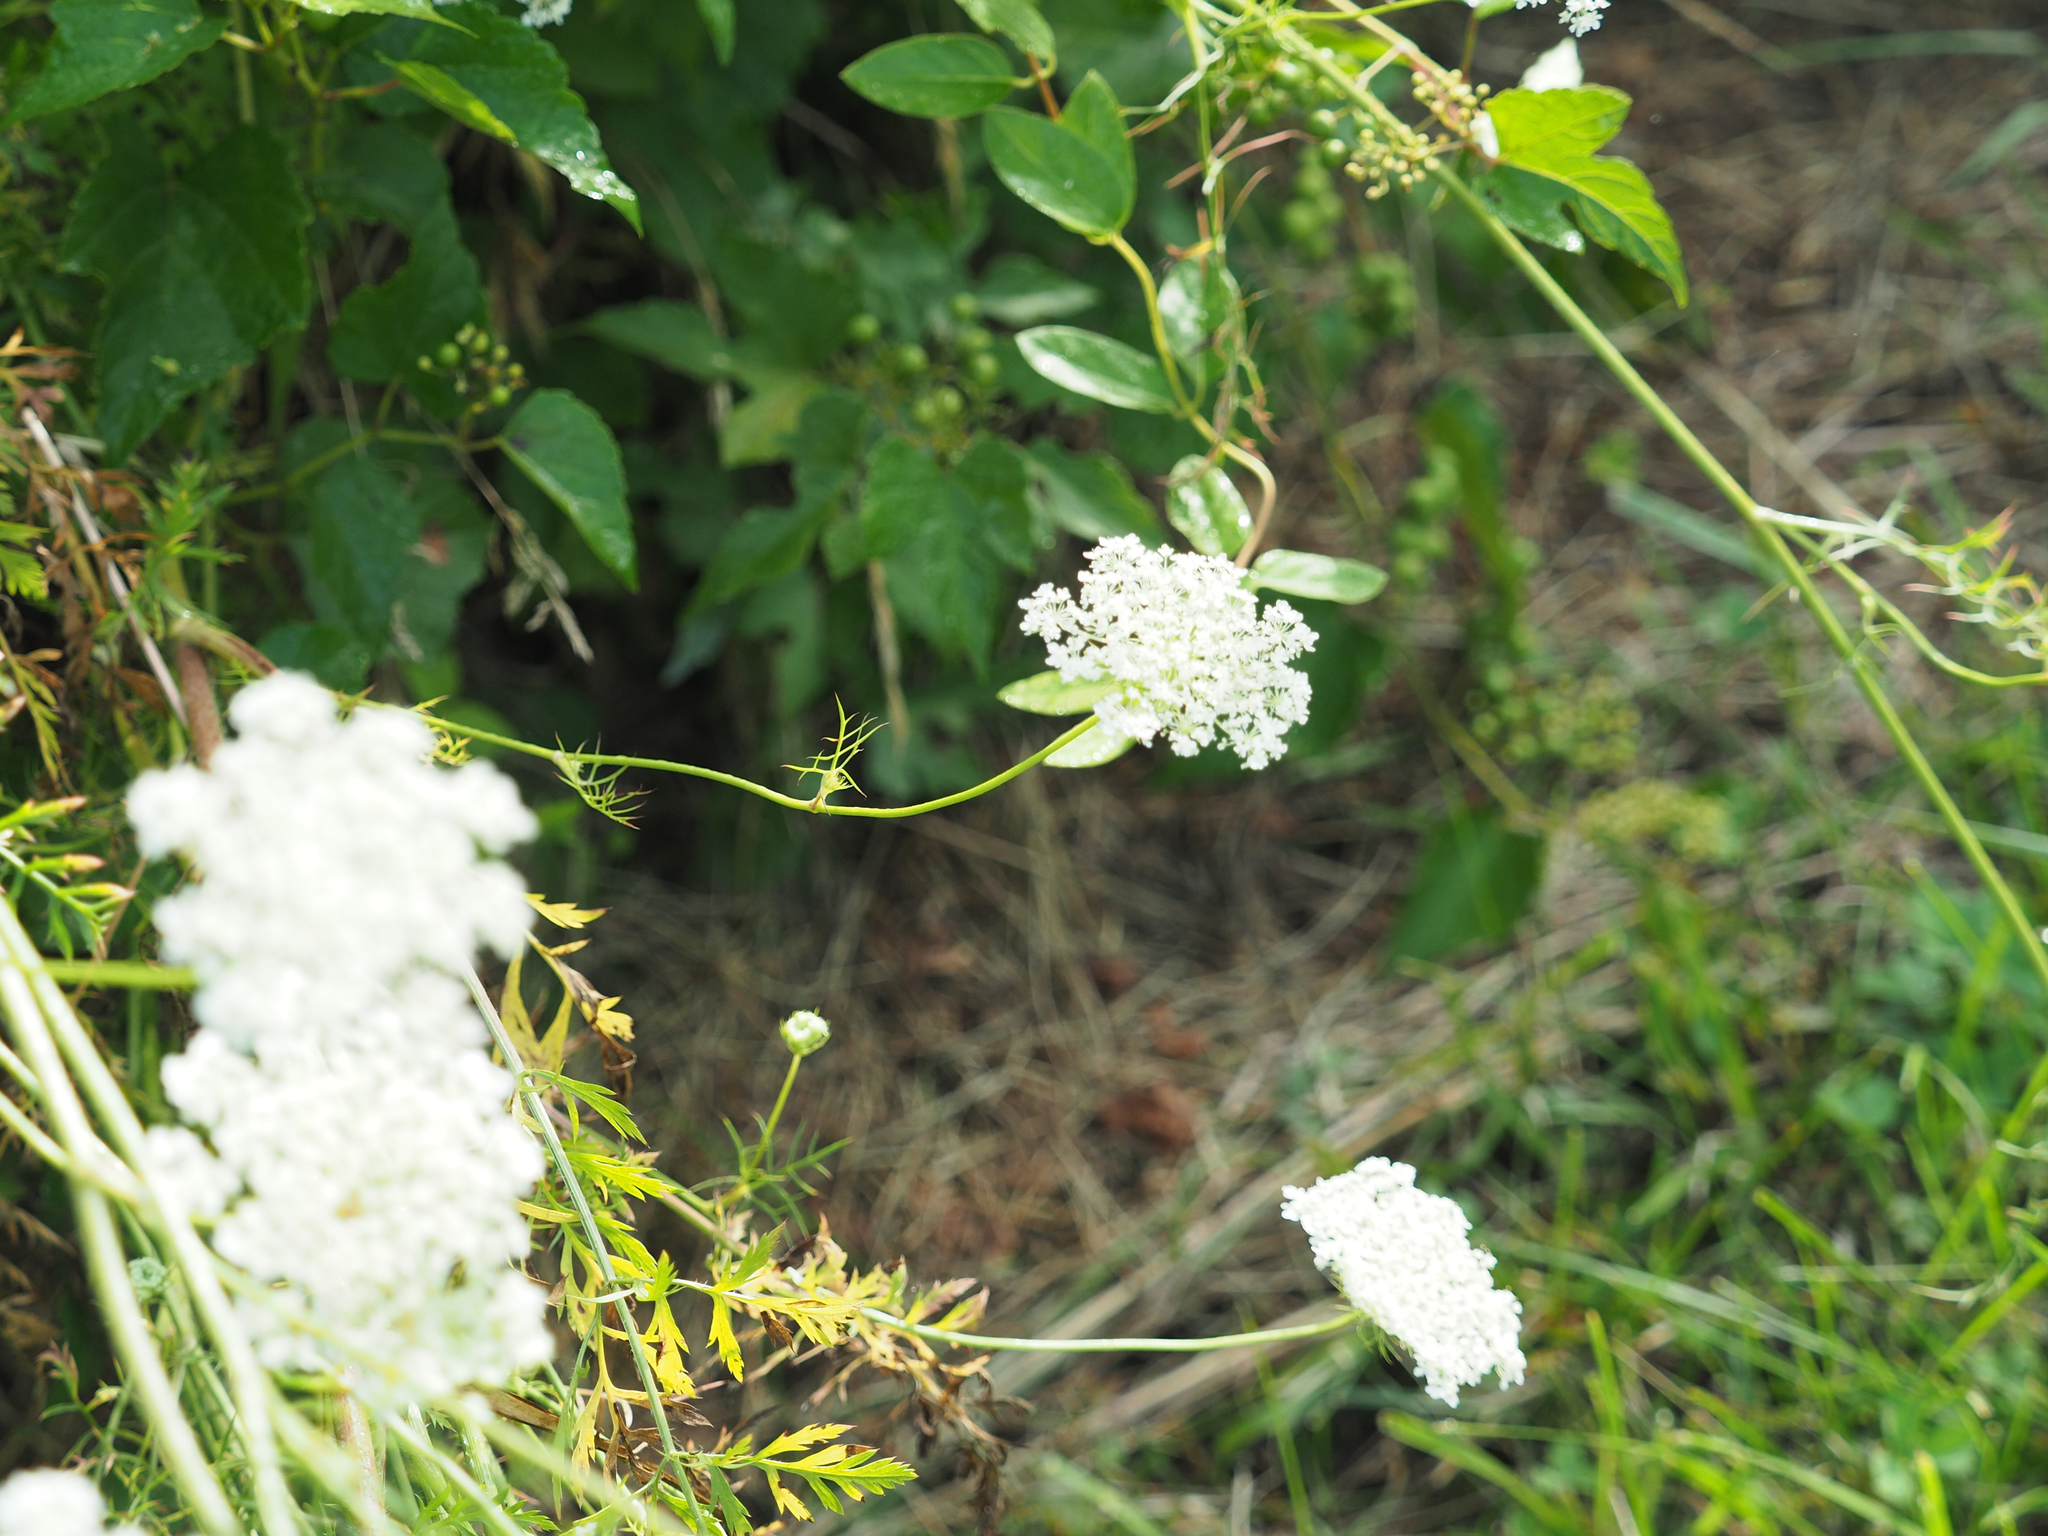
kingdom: Plantae
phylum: Tracheophyta
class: Magnoliopsida
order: Apiales
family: Apiaceae
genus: Daucus
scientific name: Daucus carota
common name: Wild carrot
